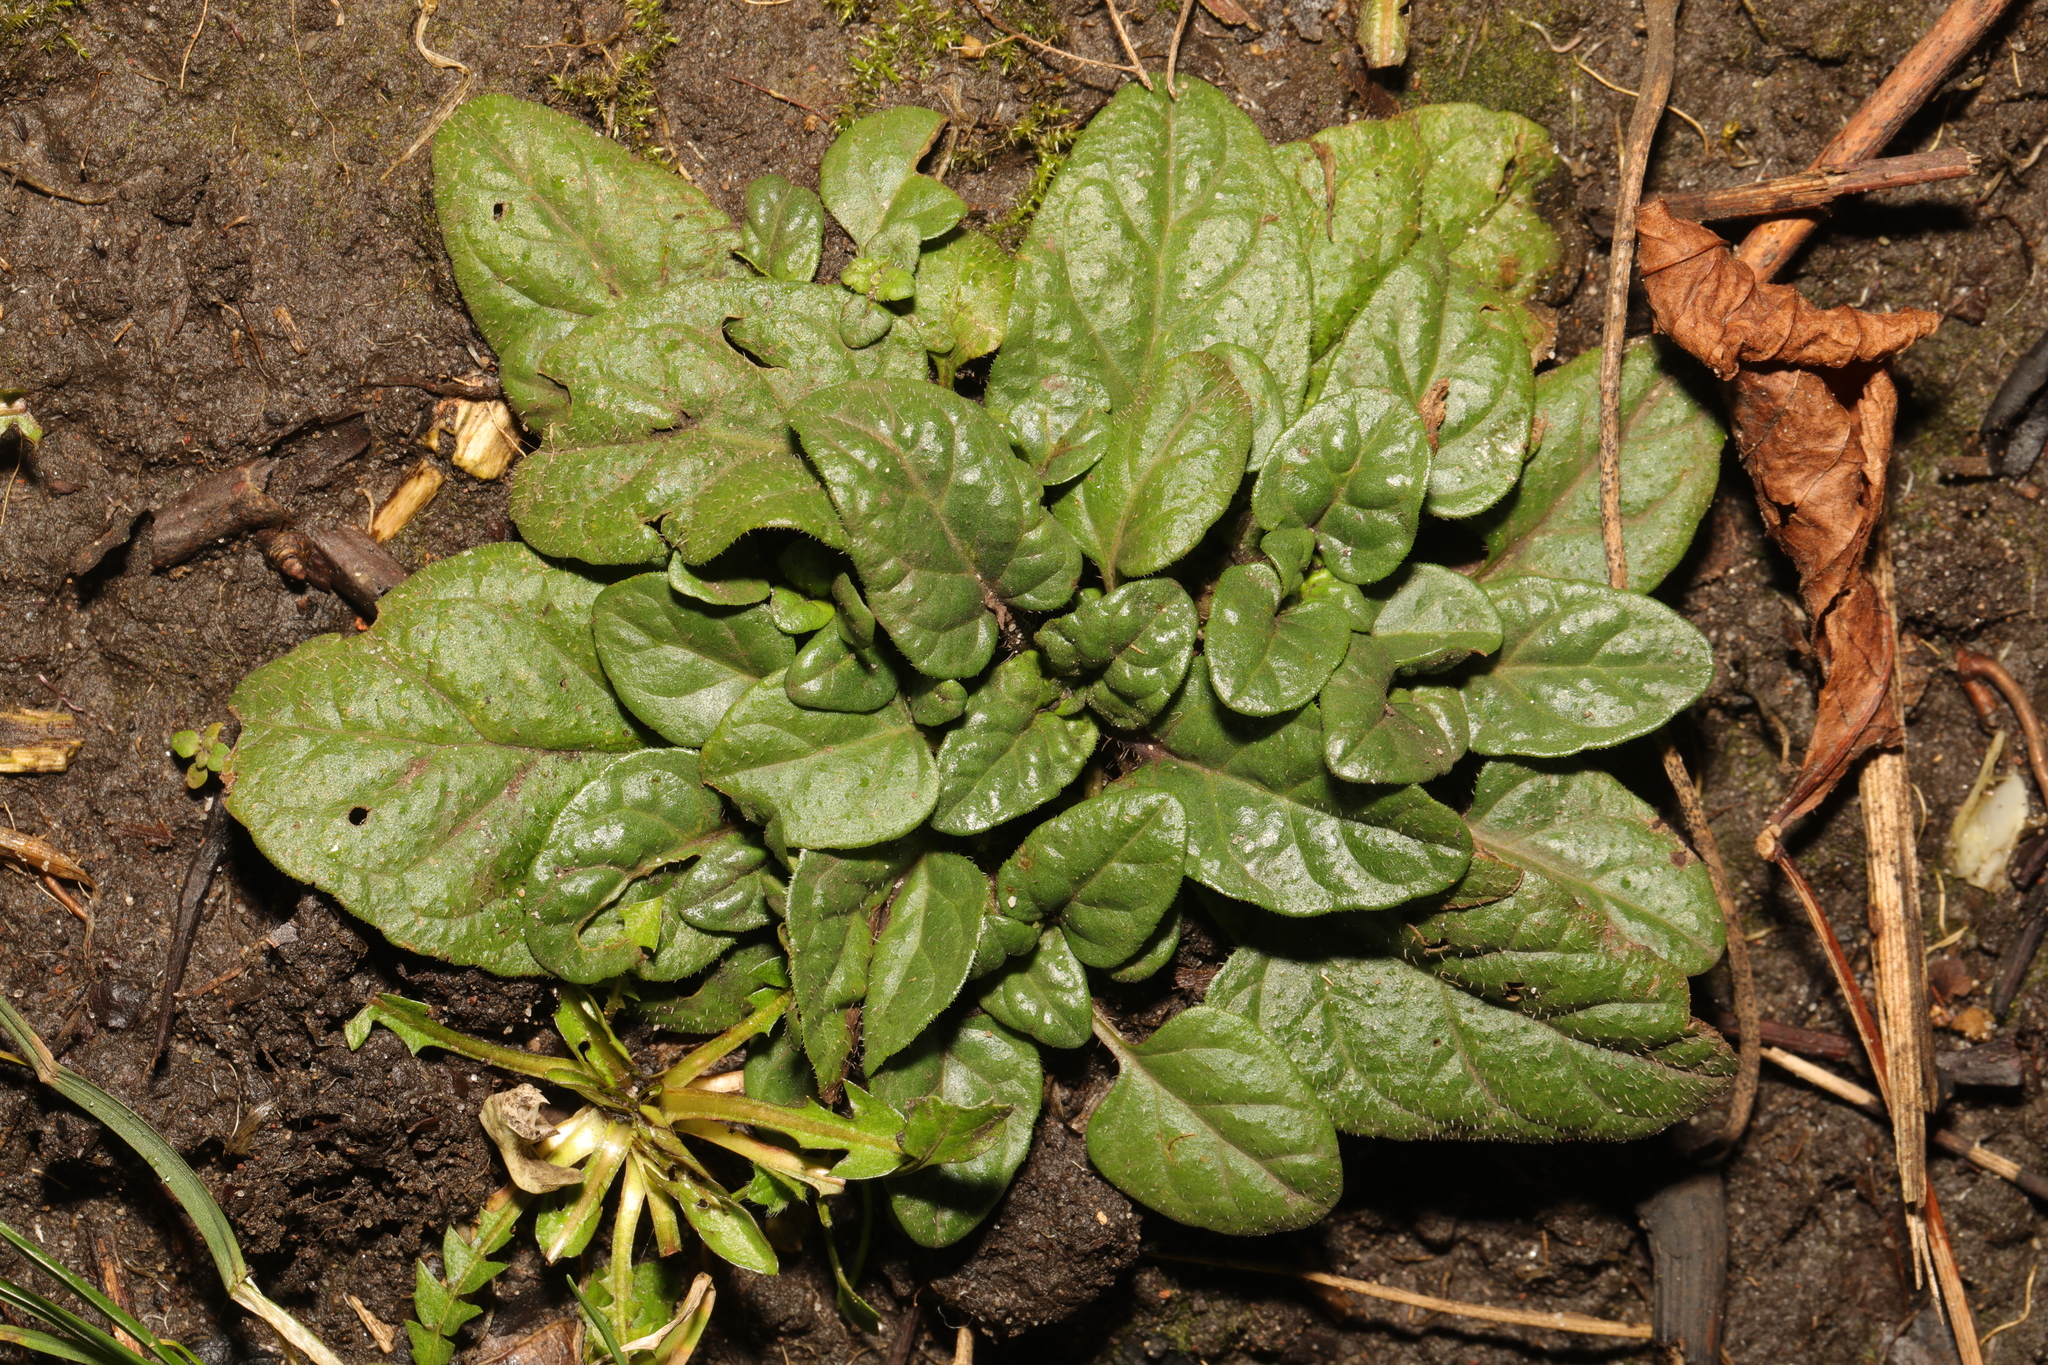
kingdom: Plantae
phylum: Tracheophyta
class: Magnoliopsida
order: Lamiales
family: Lamiaceae
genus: Prunella
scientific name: Prunella vulgaris
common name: Heal-all
